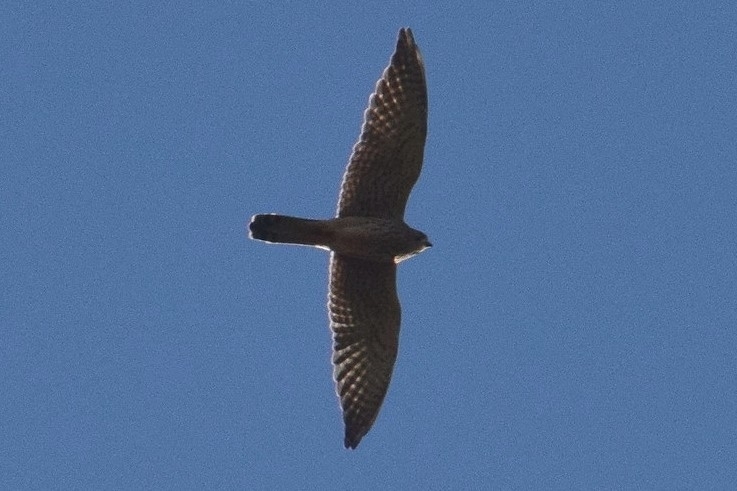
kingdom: Animalia
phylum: Chordata
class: Aves
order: Falconiformes
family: Falconidae
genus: Falco
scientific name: Falco tinnunculus
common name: Common kestrel
